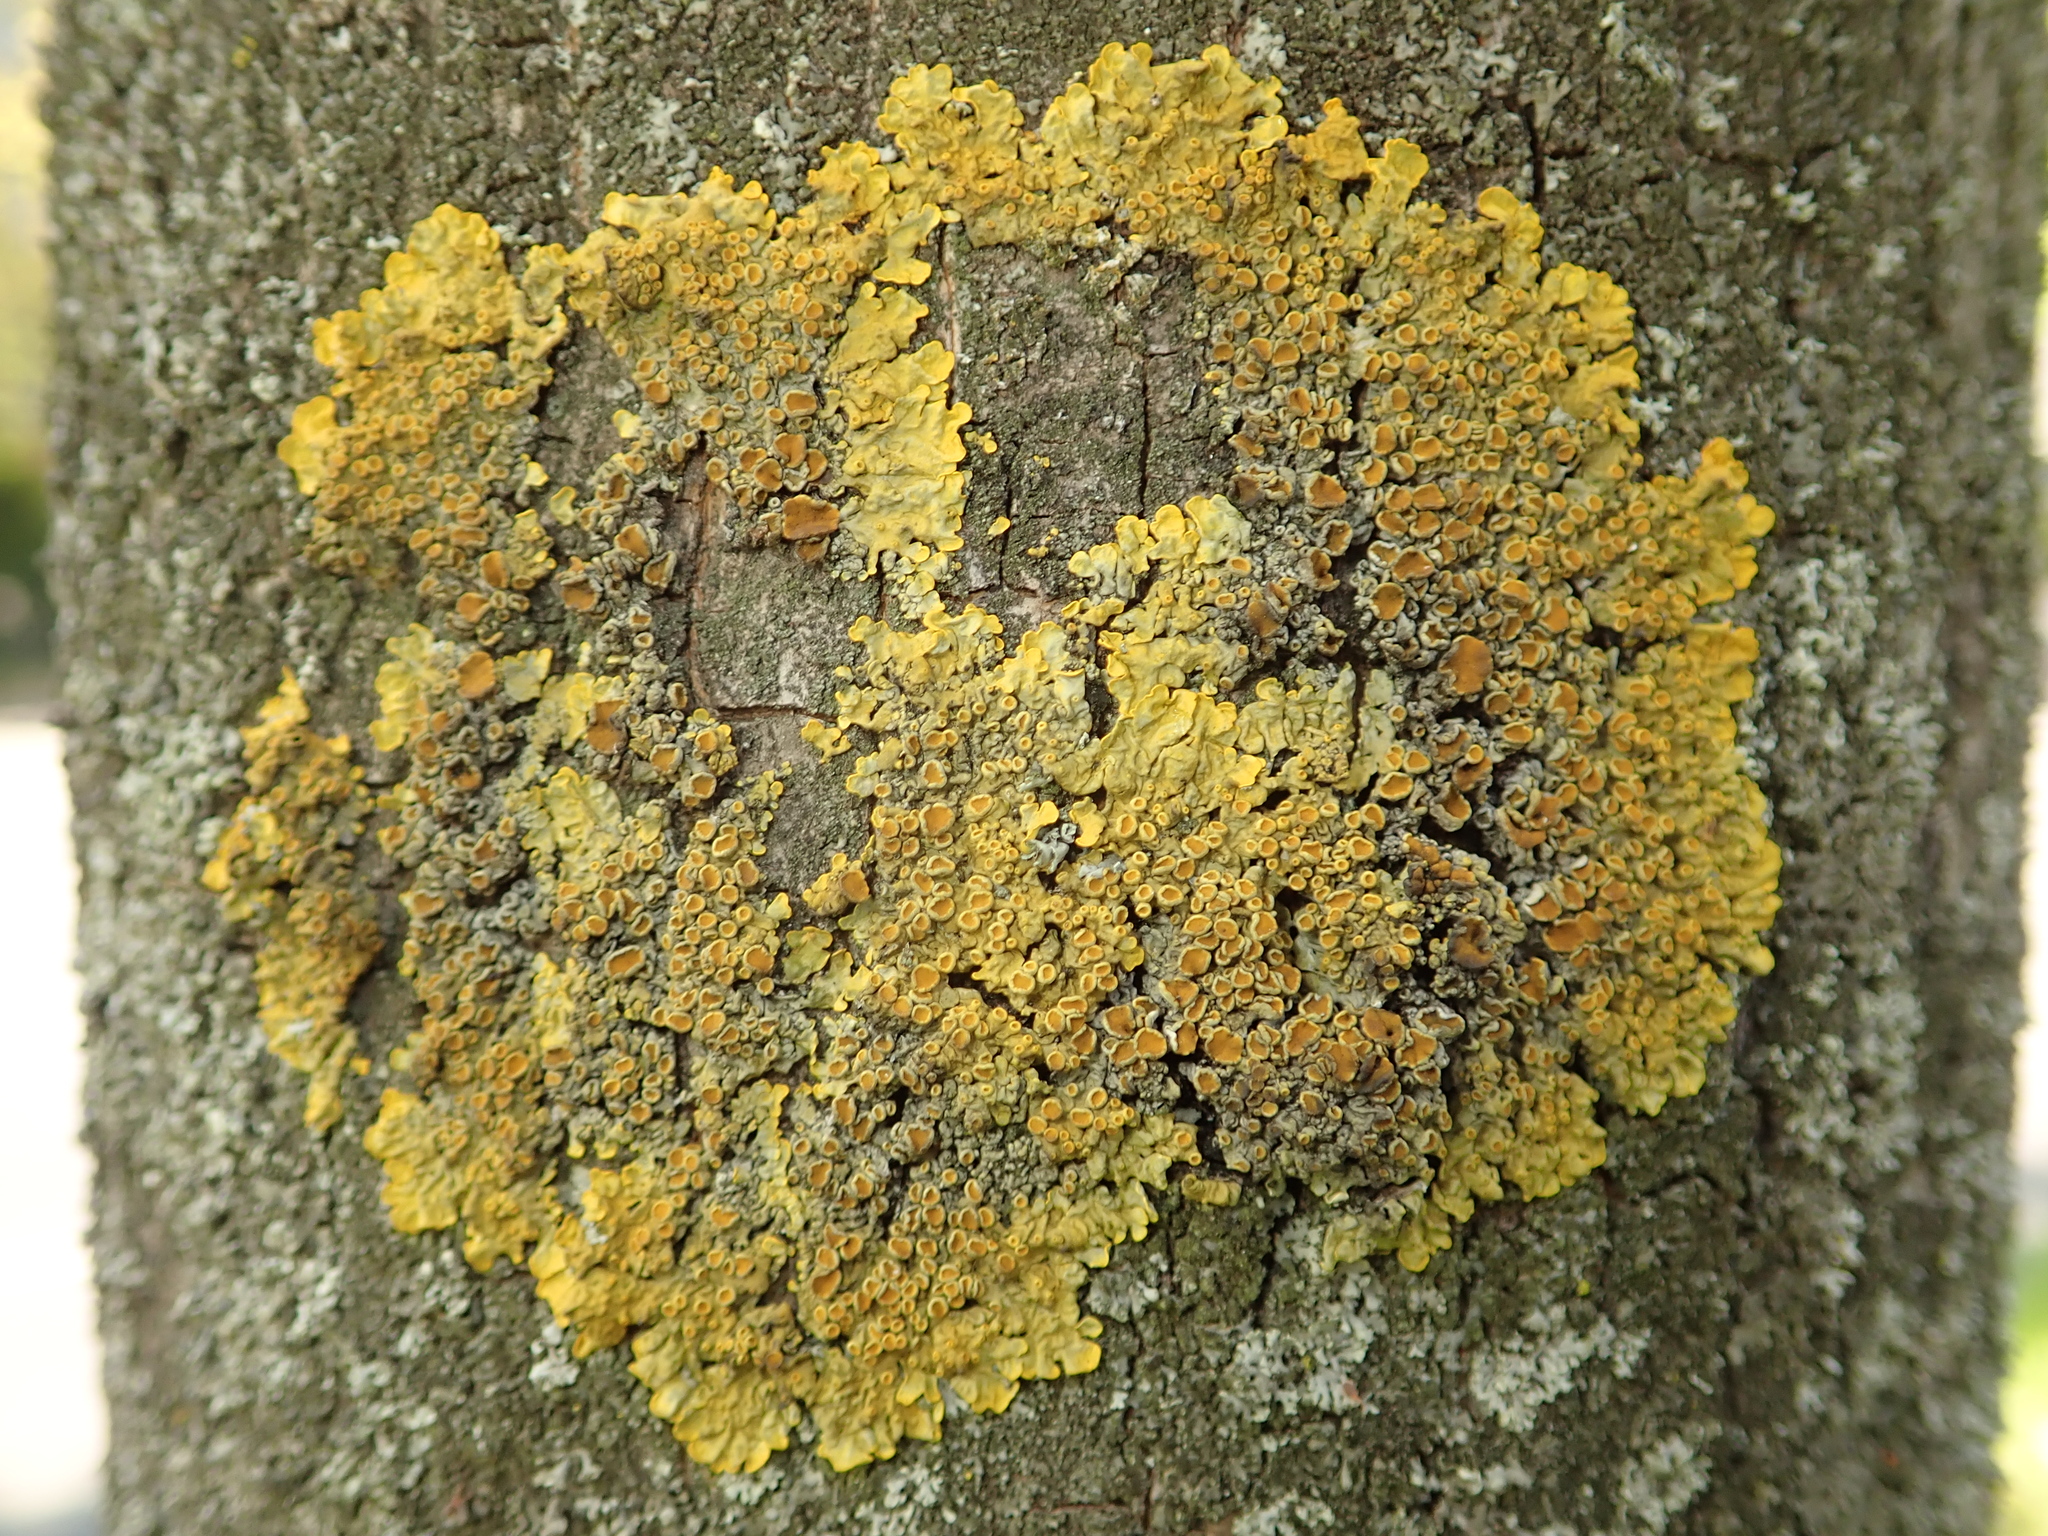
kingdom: Fungi
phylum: Ascomycota
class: Lecanoromycetes
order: Teloschistales
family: Teloschistaceae
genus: Xanthoria
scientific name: Xanthoria parietina
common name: Common orange lichen
